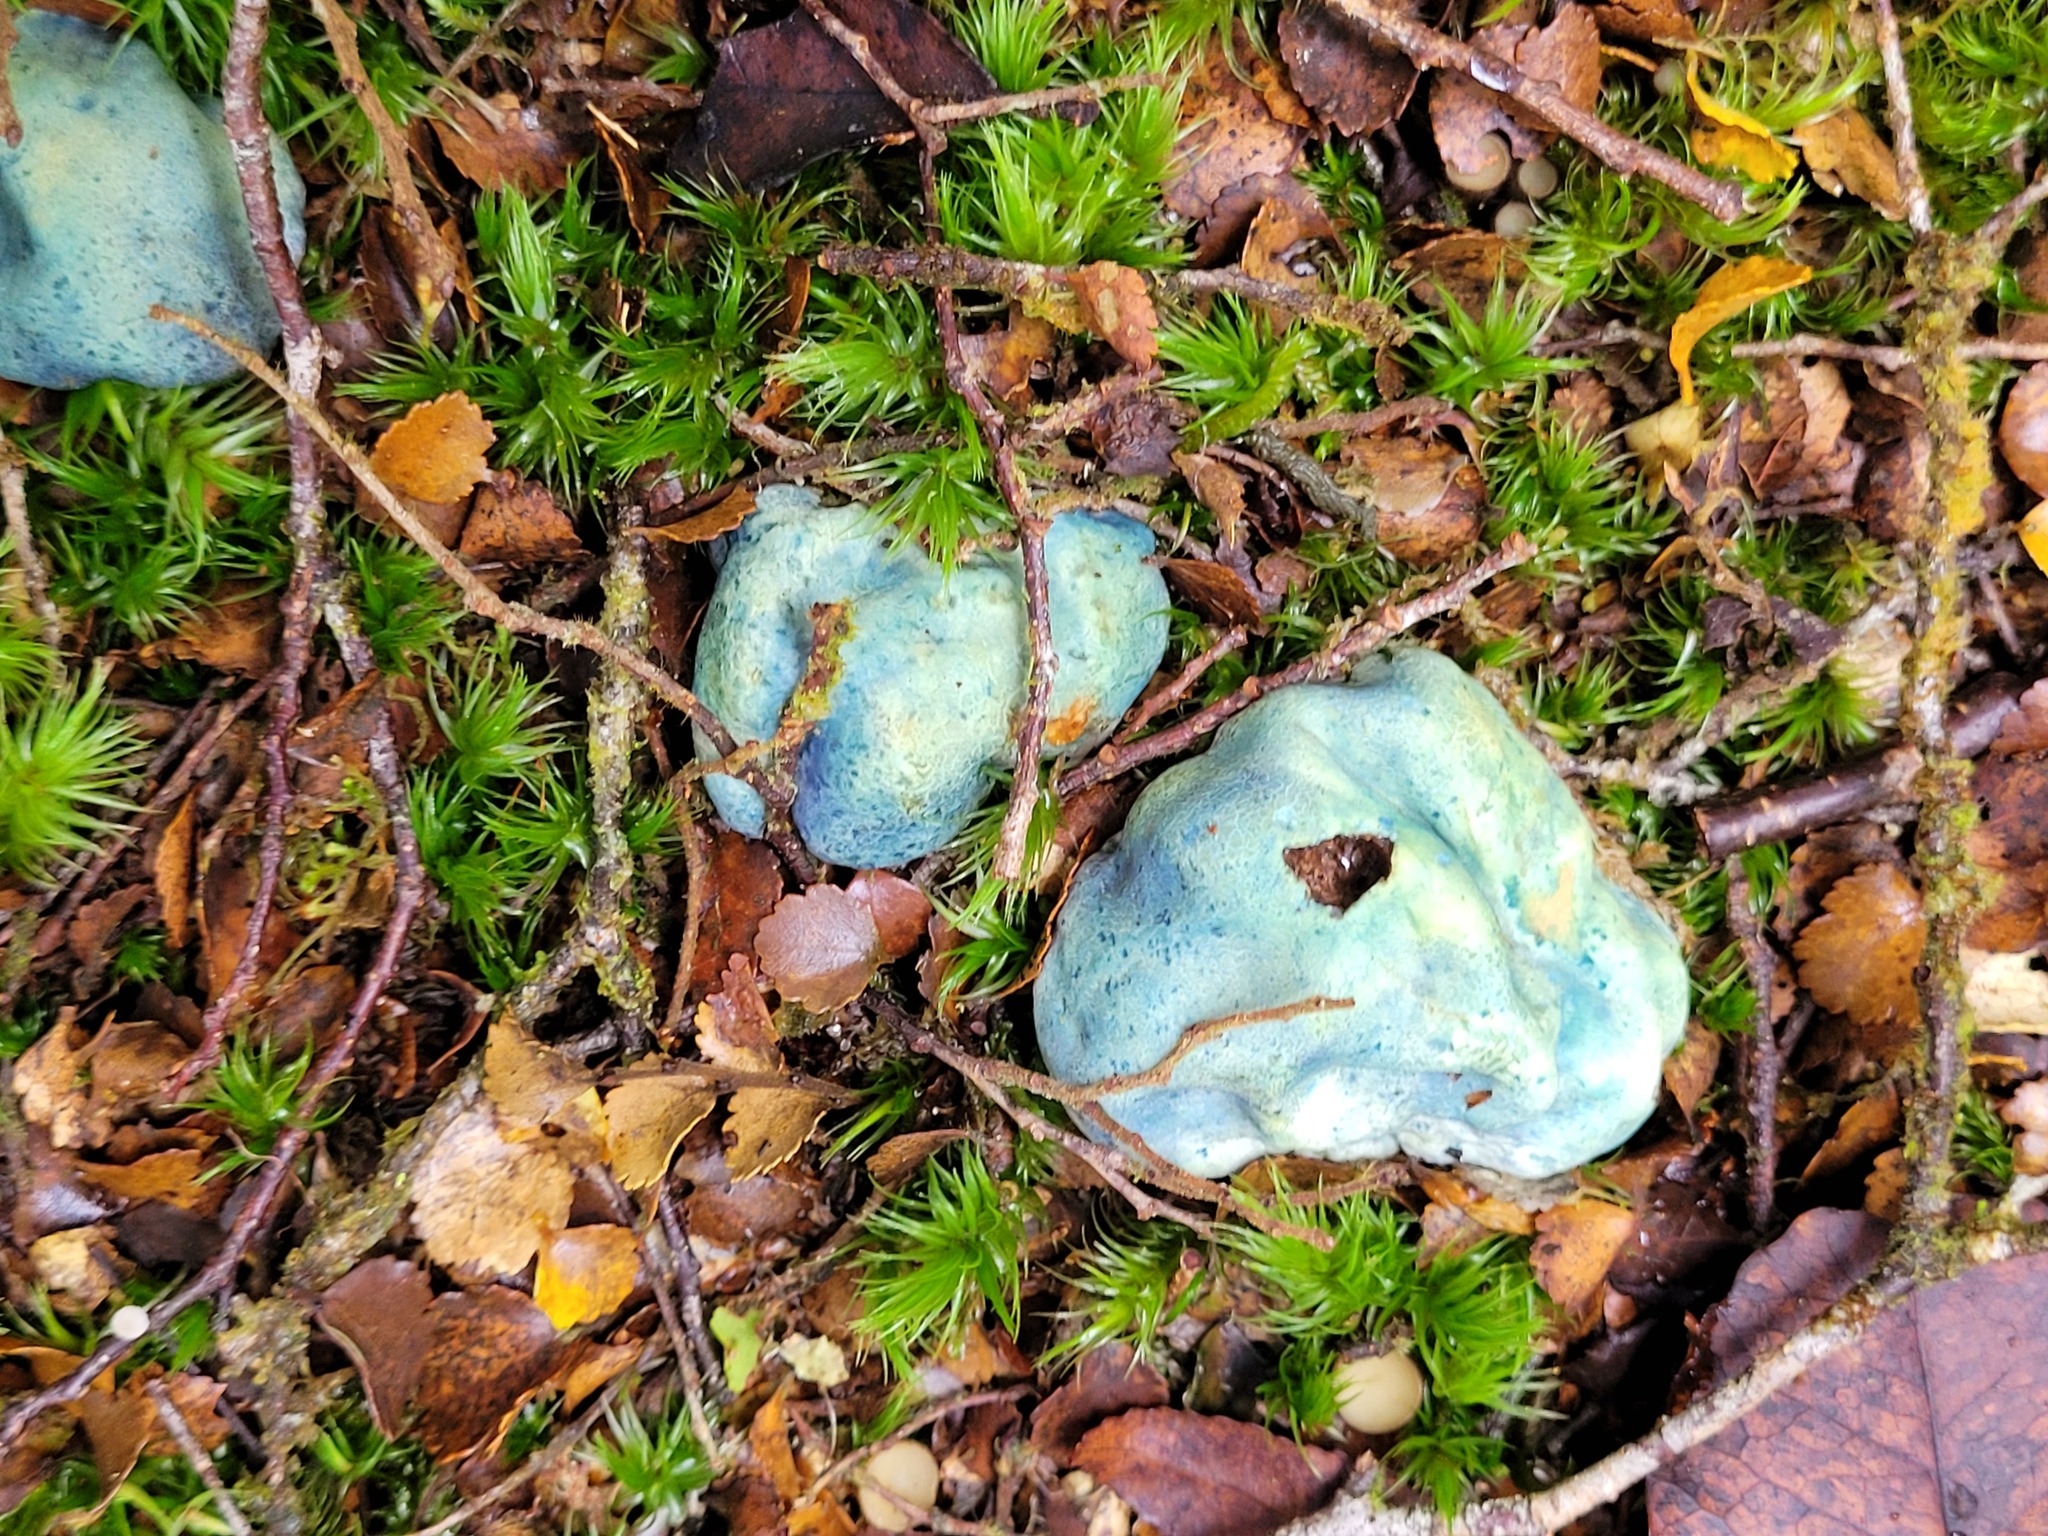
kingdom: Fungi
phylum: Basidiomycota
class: Agaricomycetes
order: Boletales
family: Boletaceae
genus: Leccinum
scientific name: Leccinum pachyderme
